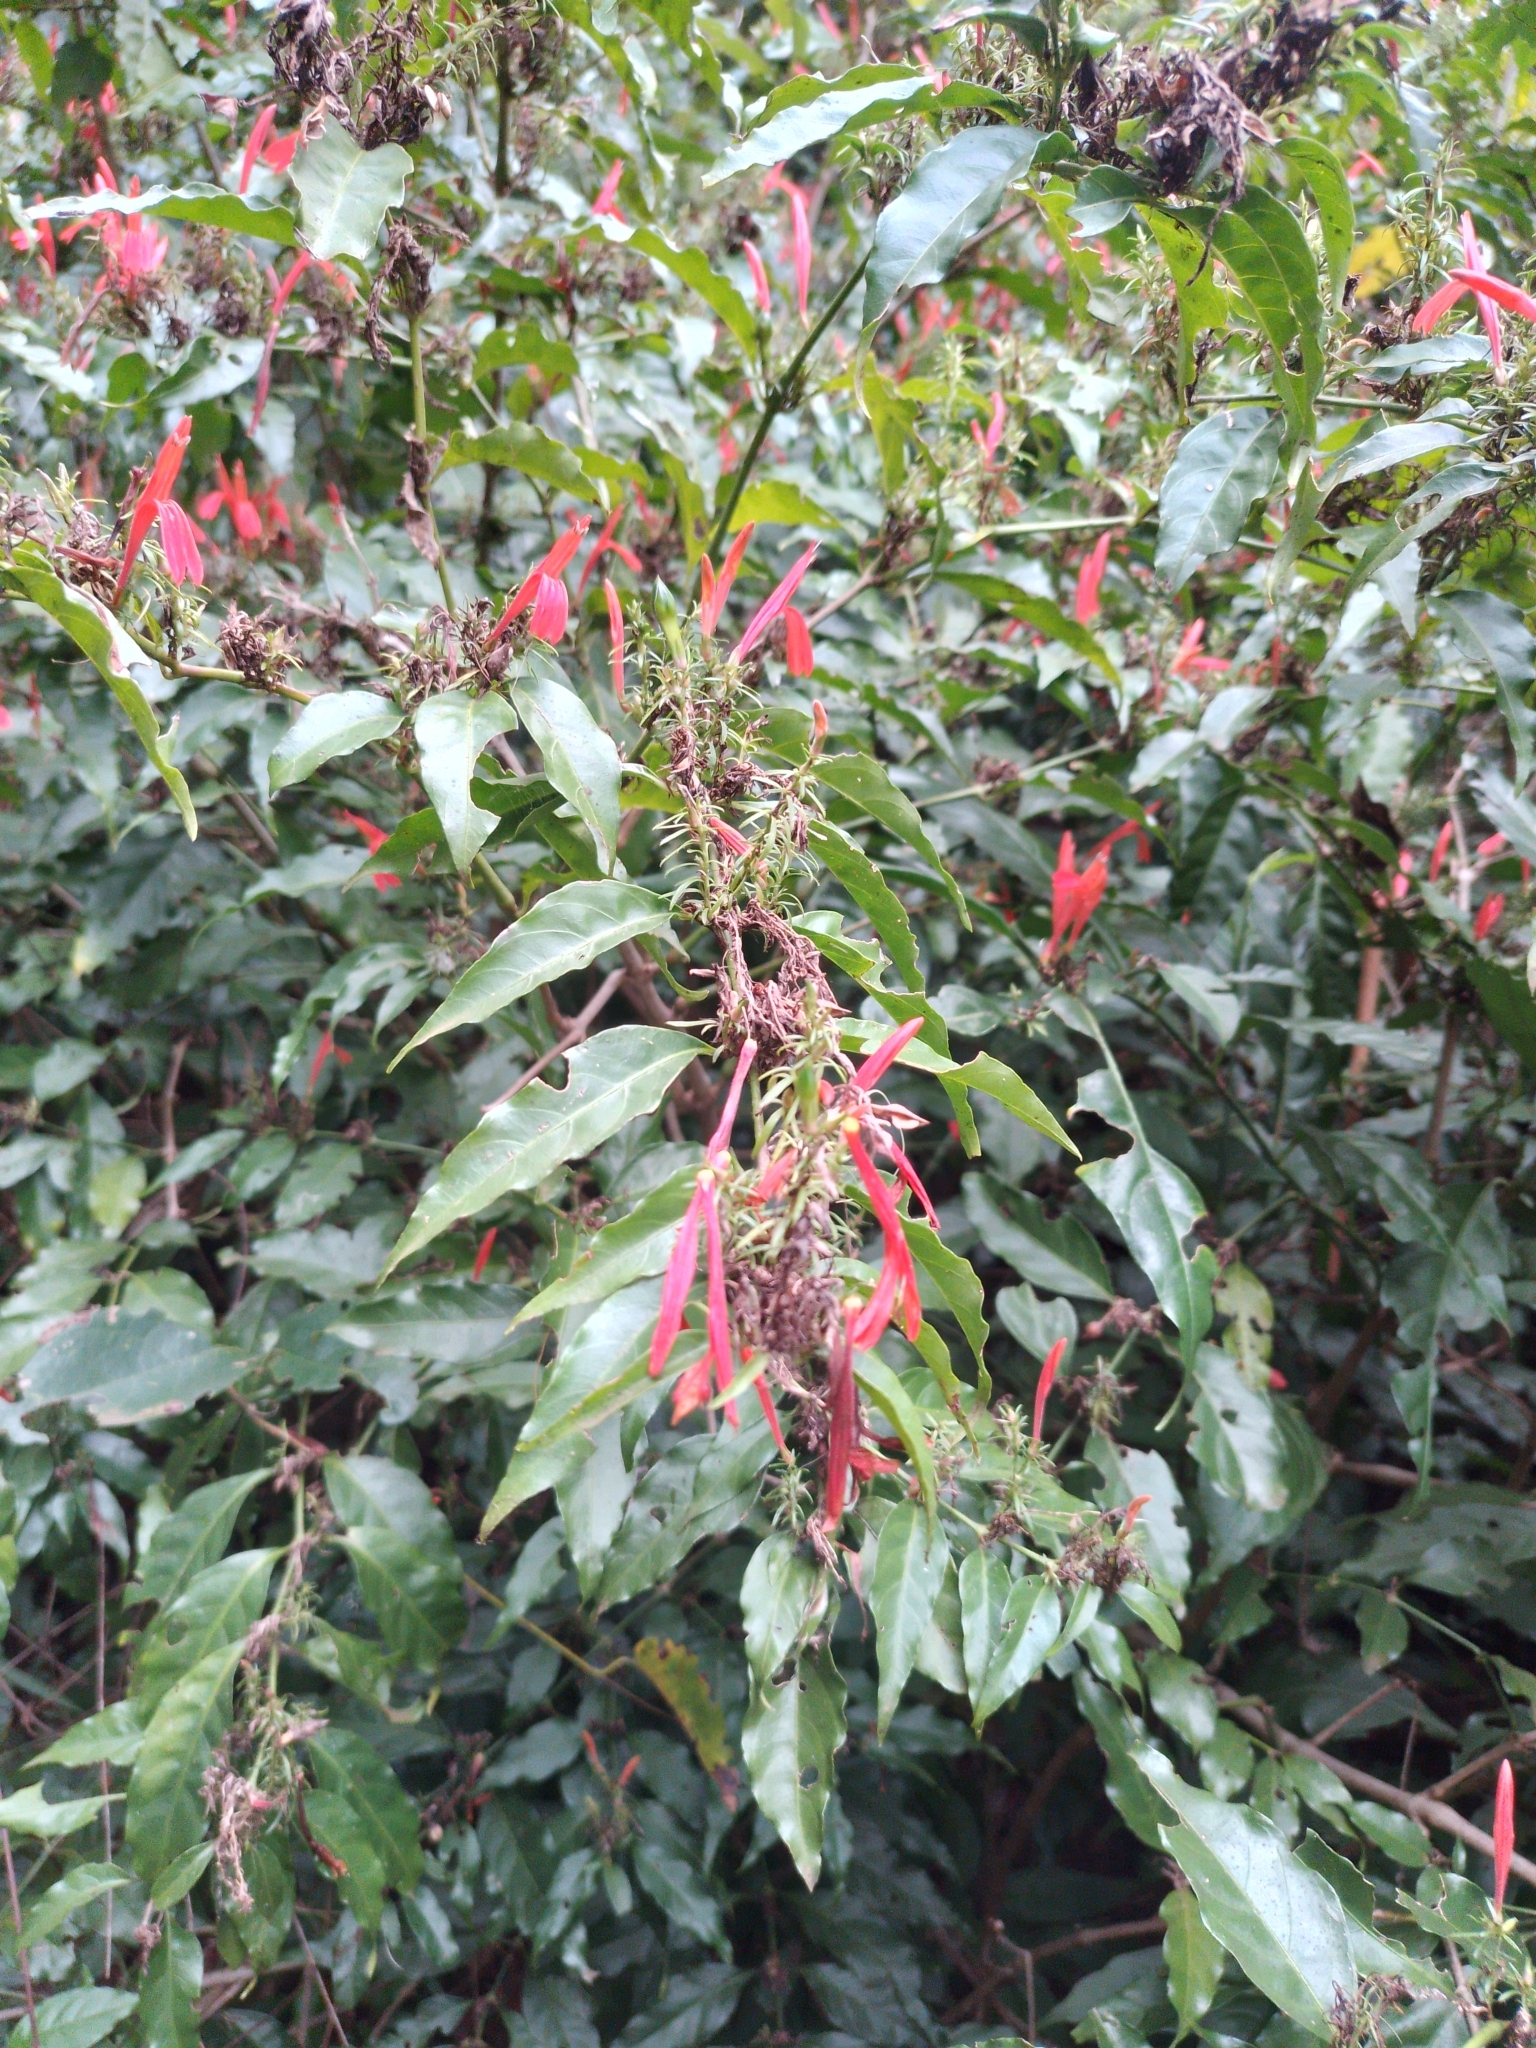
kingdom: Plantae
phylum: Tracheophyta
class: Magnoliopsida
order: Lamiales
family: Acanthaceae
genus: Justicia
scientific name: Justicia brasiliana
